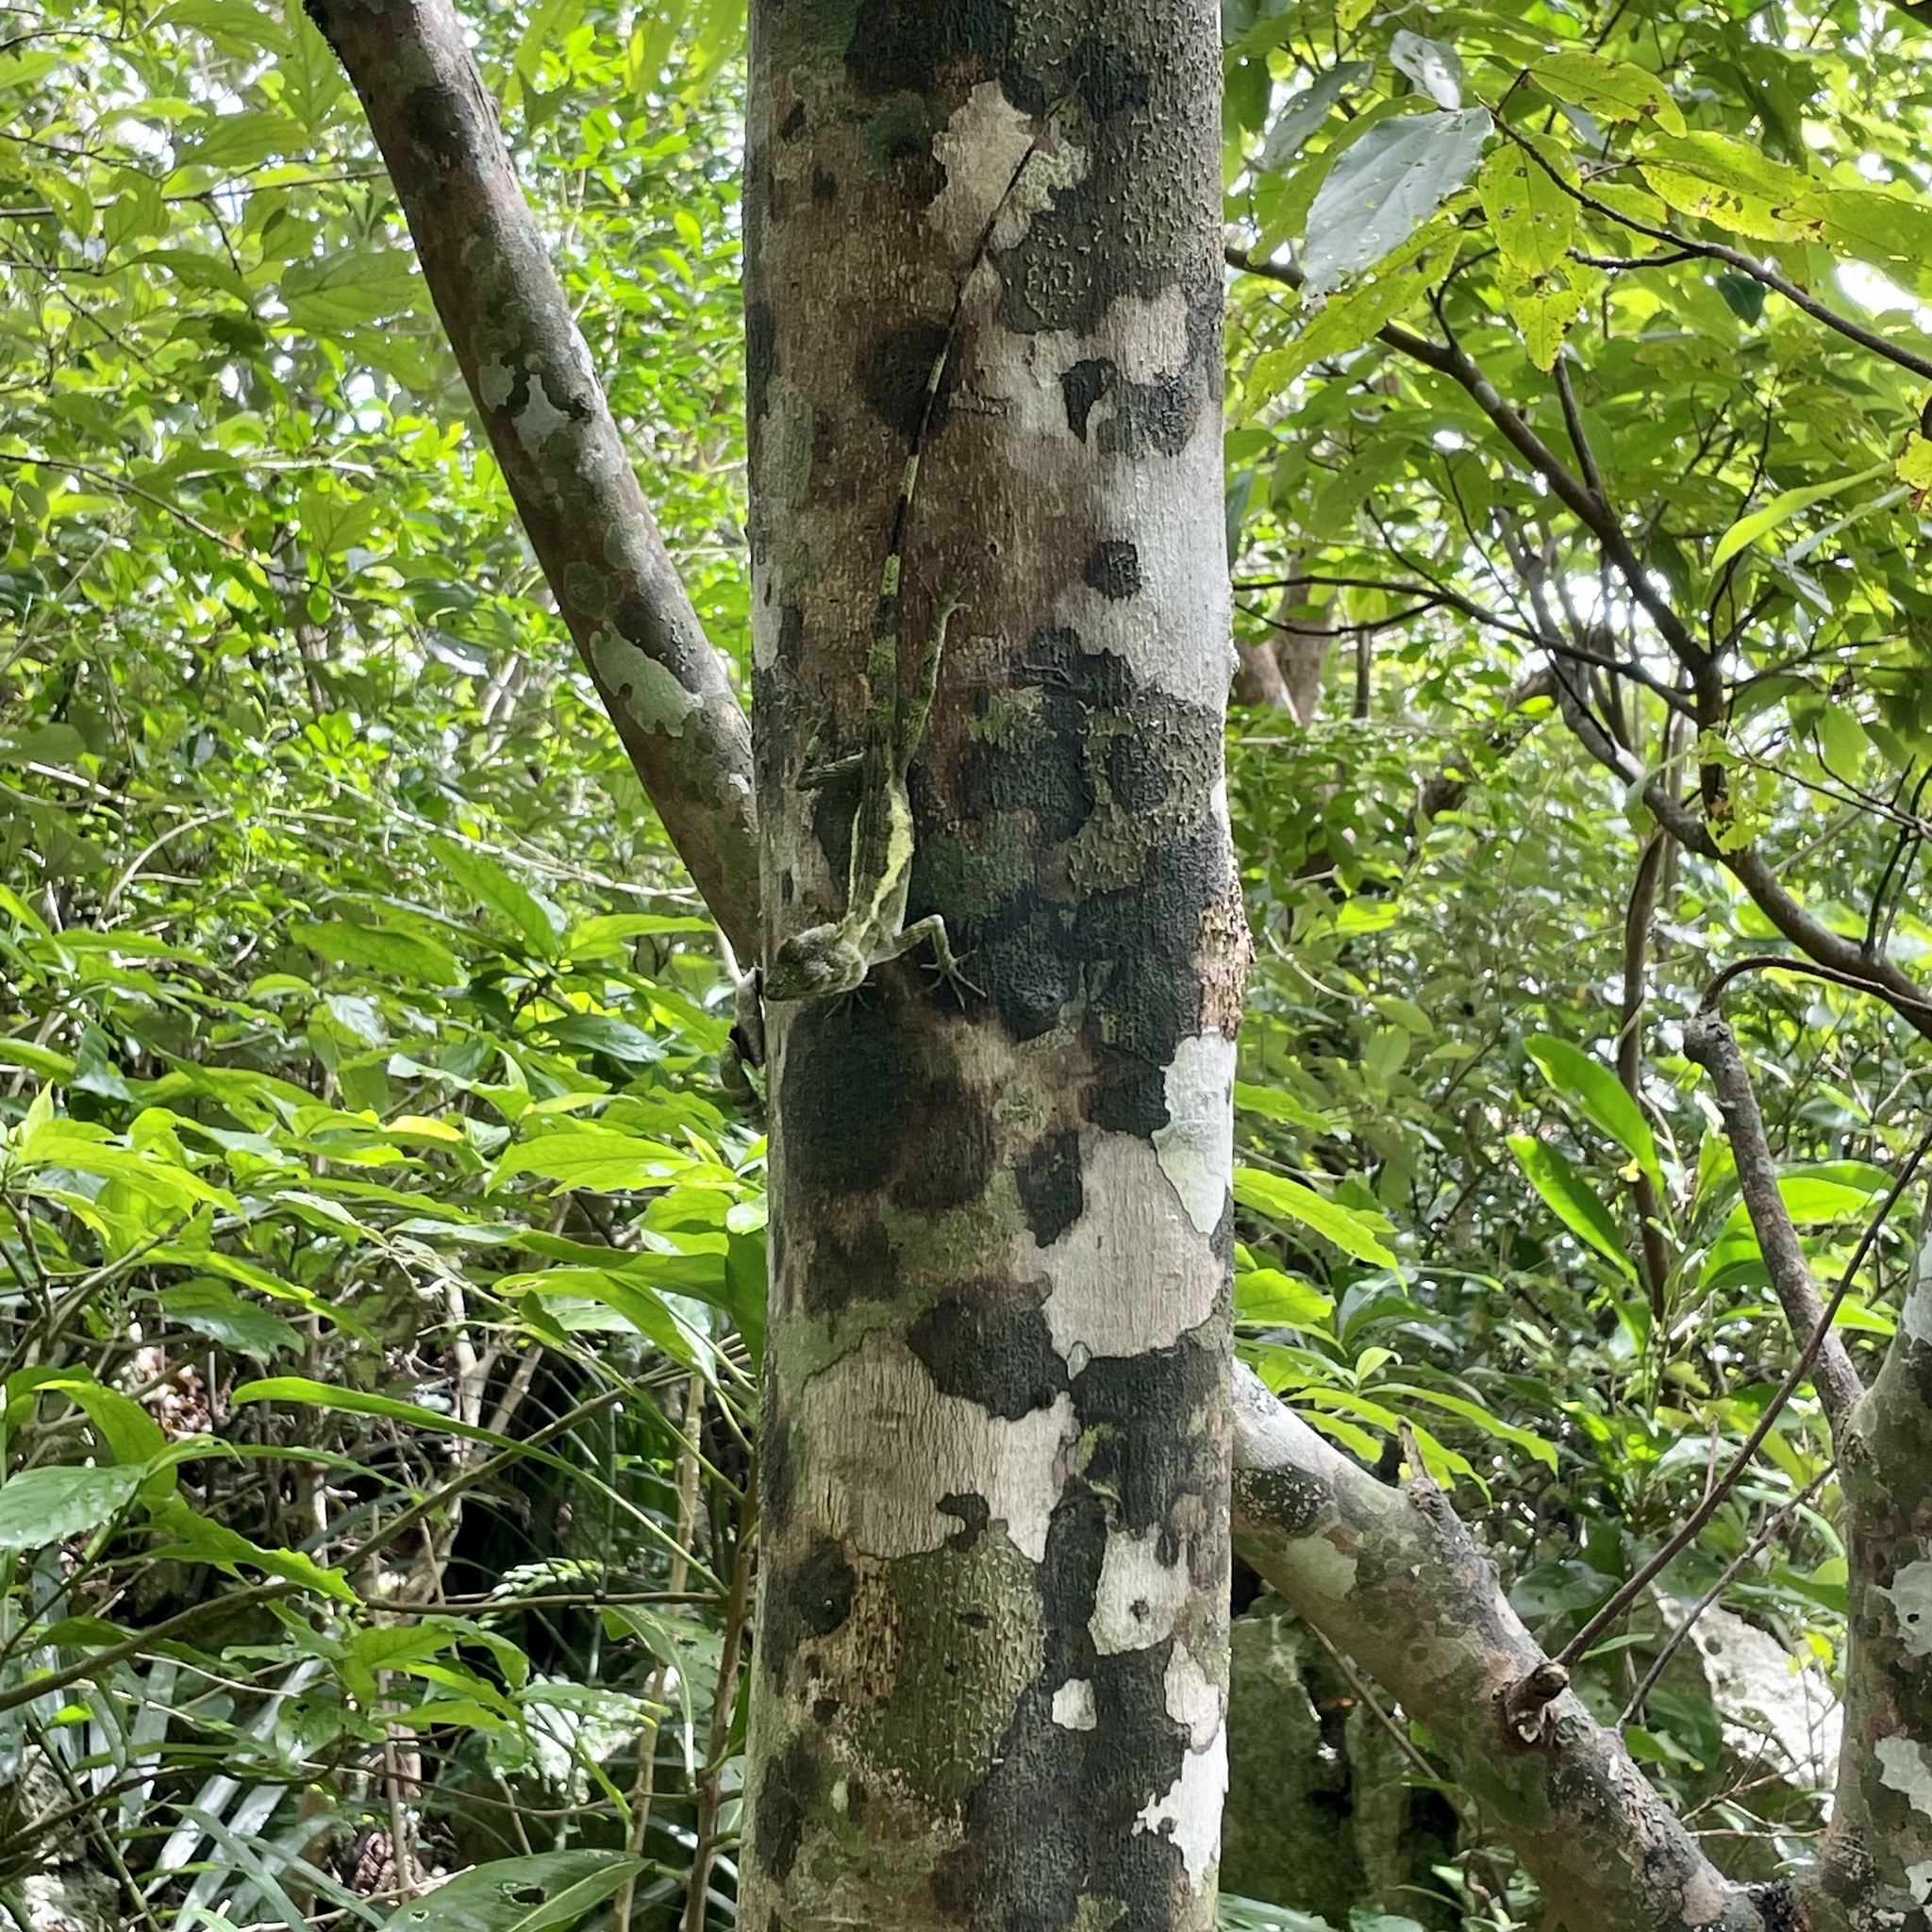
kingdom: Fungi
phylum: Basidiomycota
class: Agaricomycetes
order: Boletales
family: Diplocystidiaceae
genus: Diploderma
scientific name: Diploderma polygonatum
